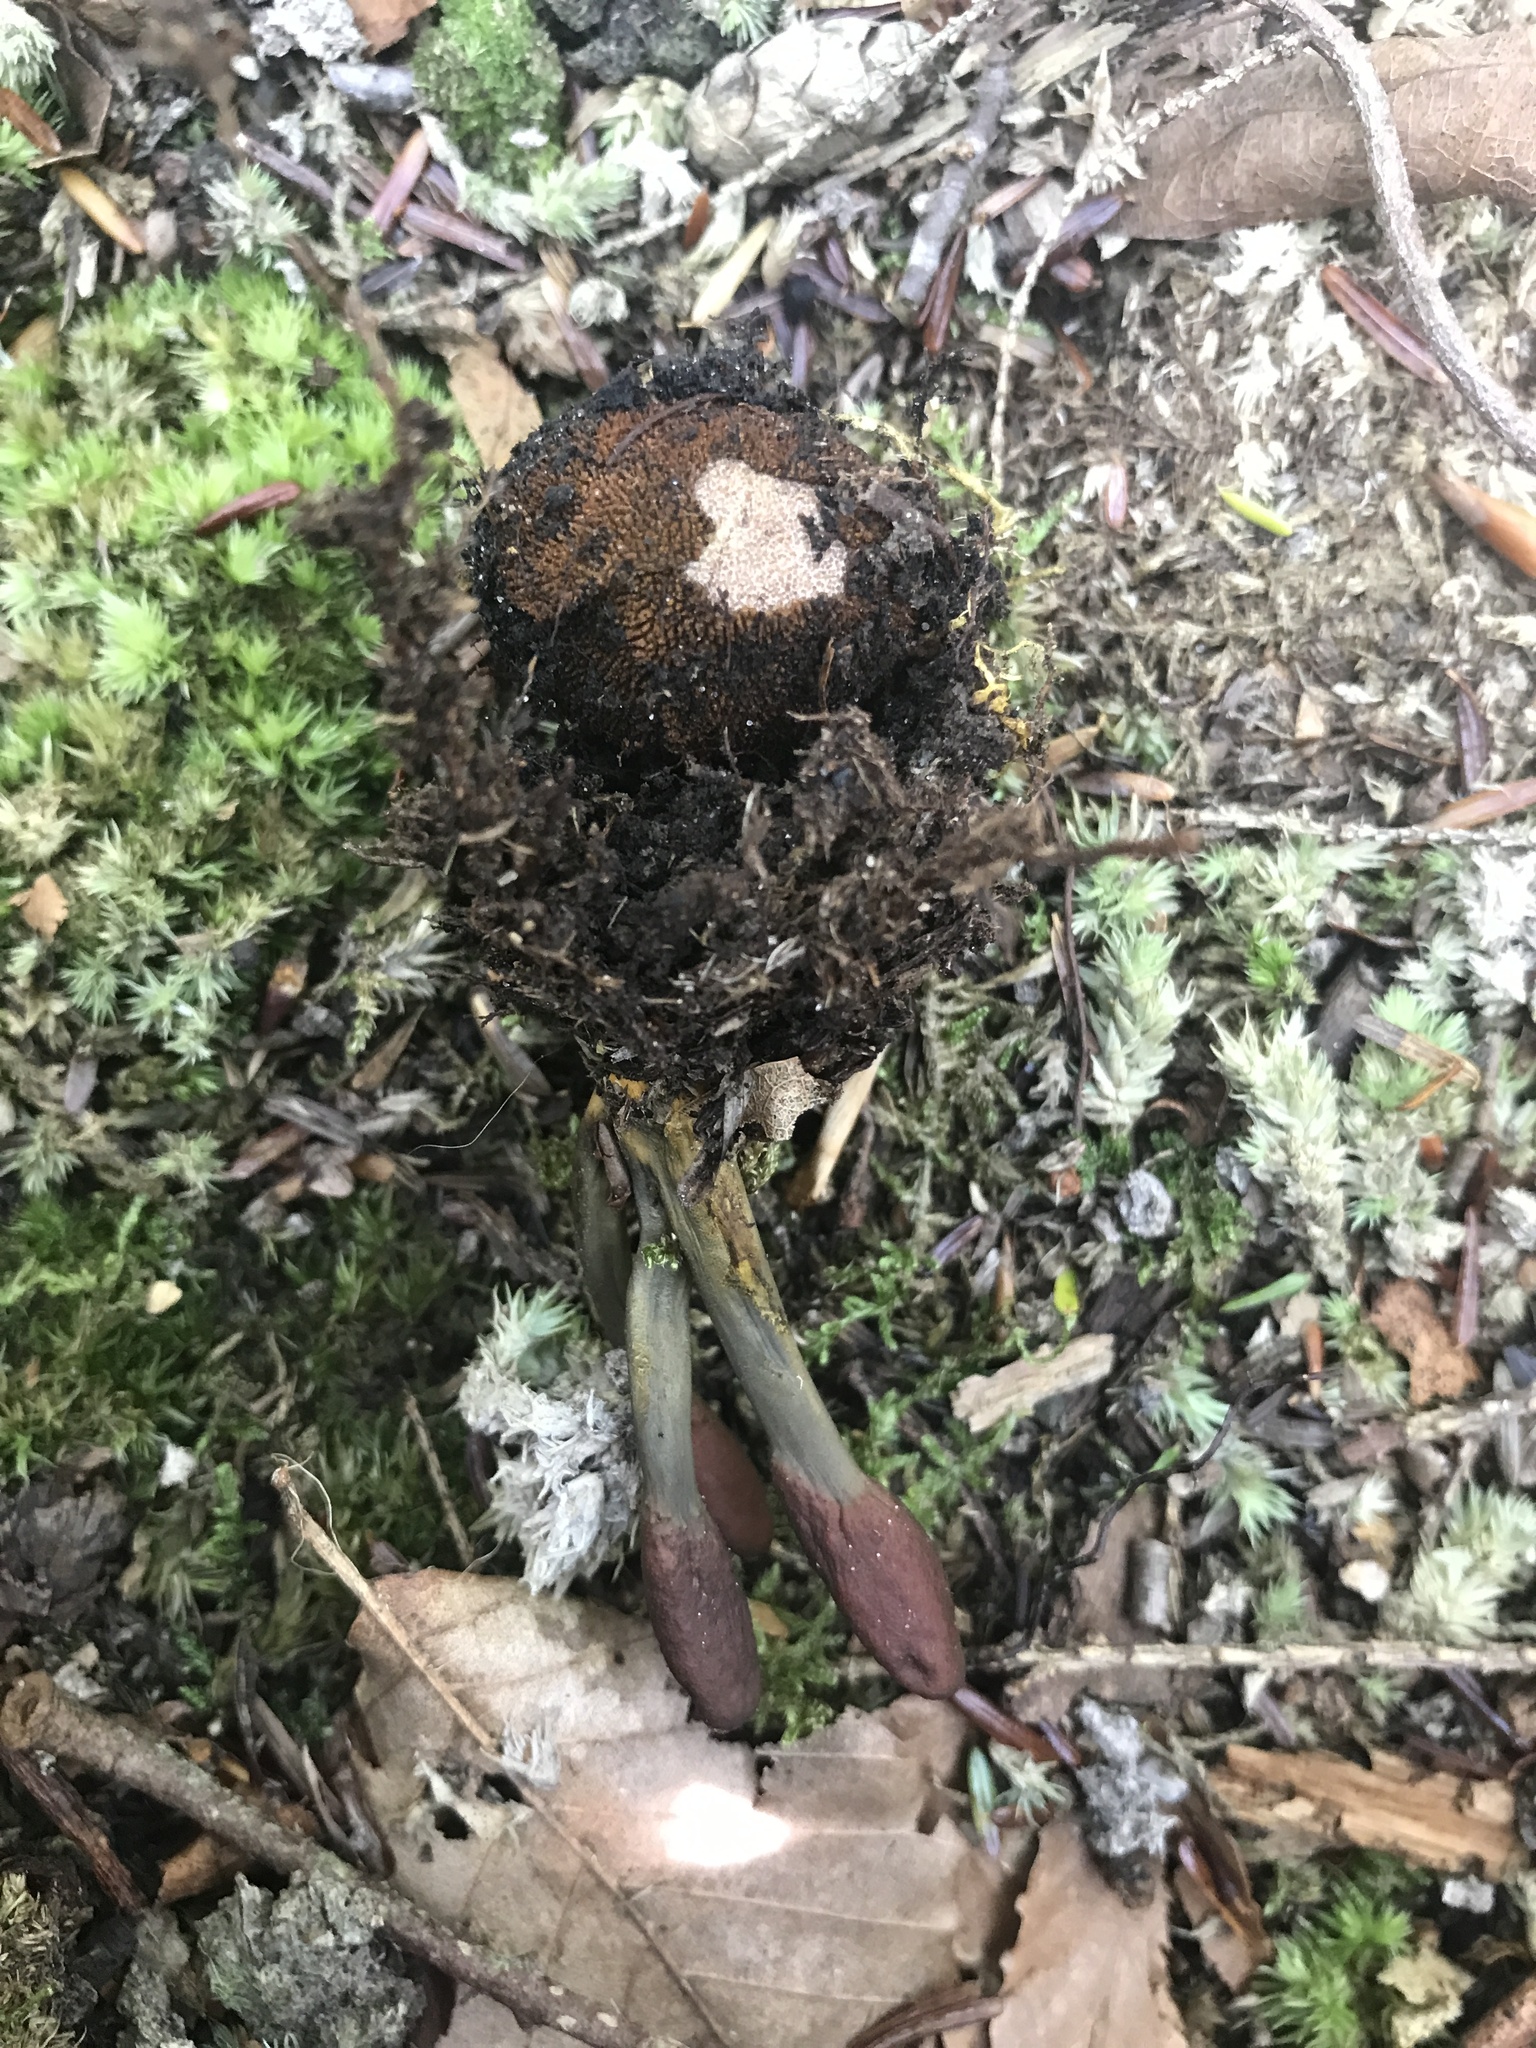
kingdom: Fungi
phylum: Ascomycota
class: Sordariomycetes
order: Hypocreales
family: Ophiocordycipitaceae
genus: Tolypocladium
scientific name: Tolypocladium ophioglossoides
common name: Snaketongue truffleclub
